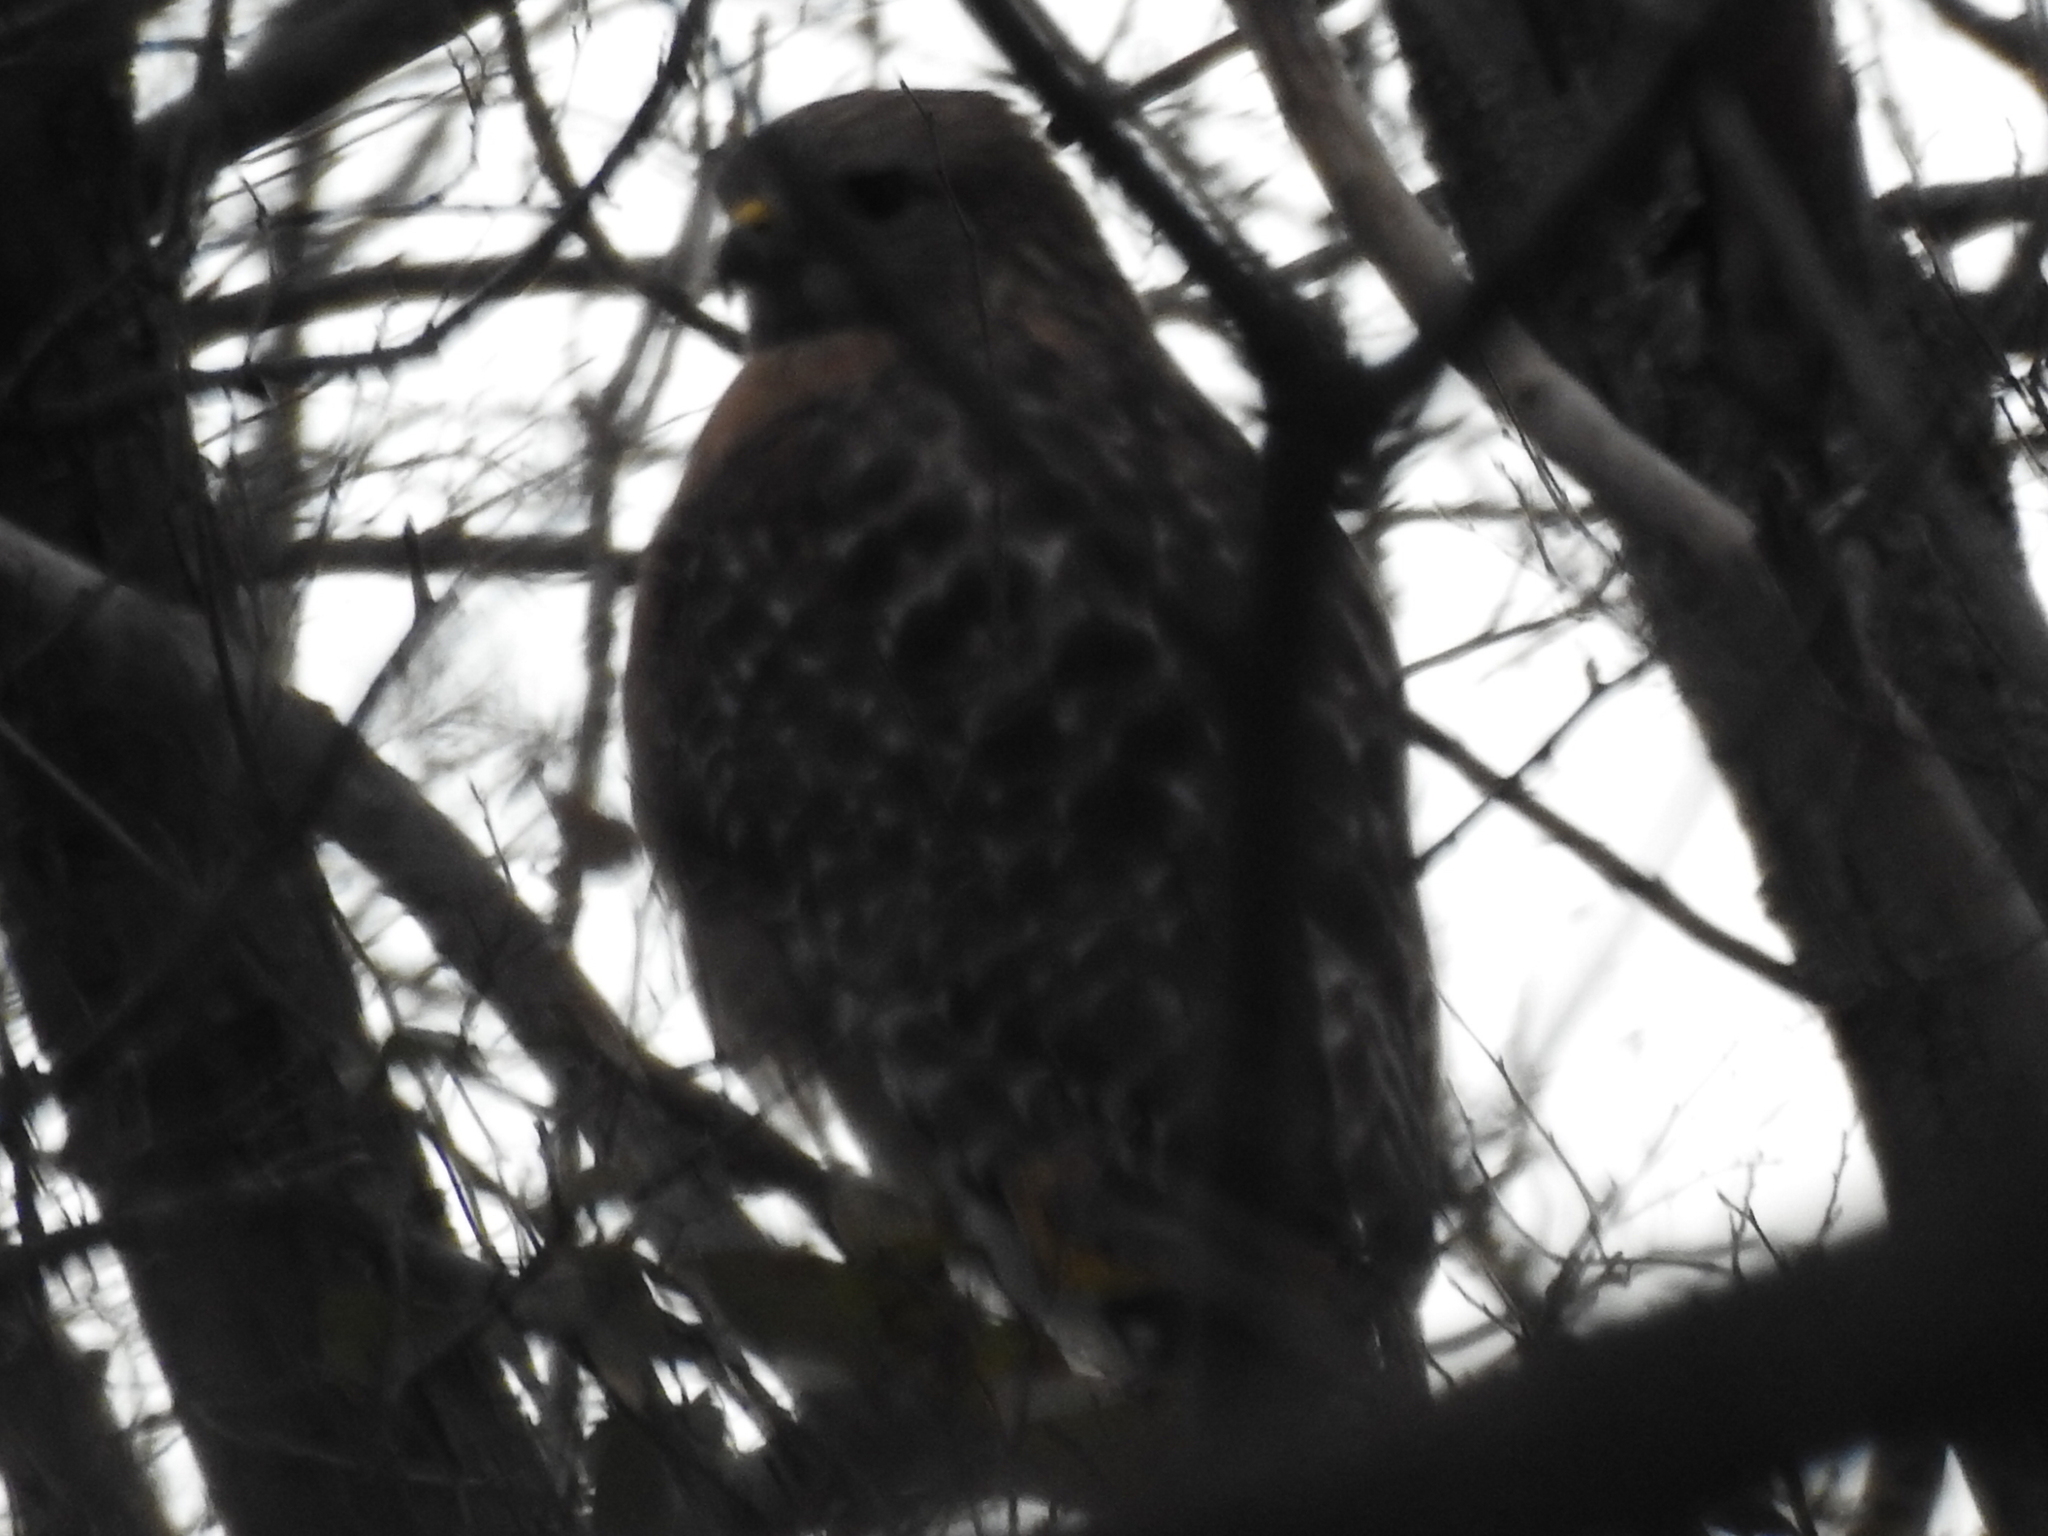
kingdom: Animalia
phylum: Chordata
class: Aves
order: Accipitriformes
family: Accipitridae
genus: Buteo
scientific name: Buteo lineatus
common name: Red-shouldered hawk
